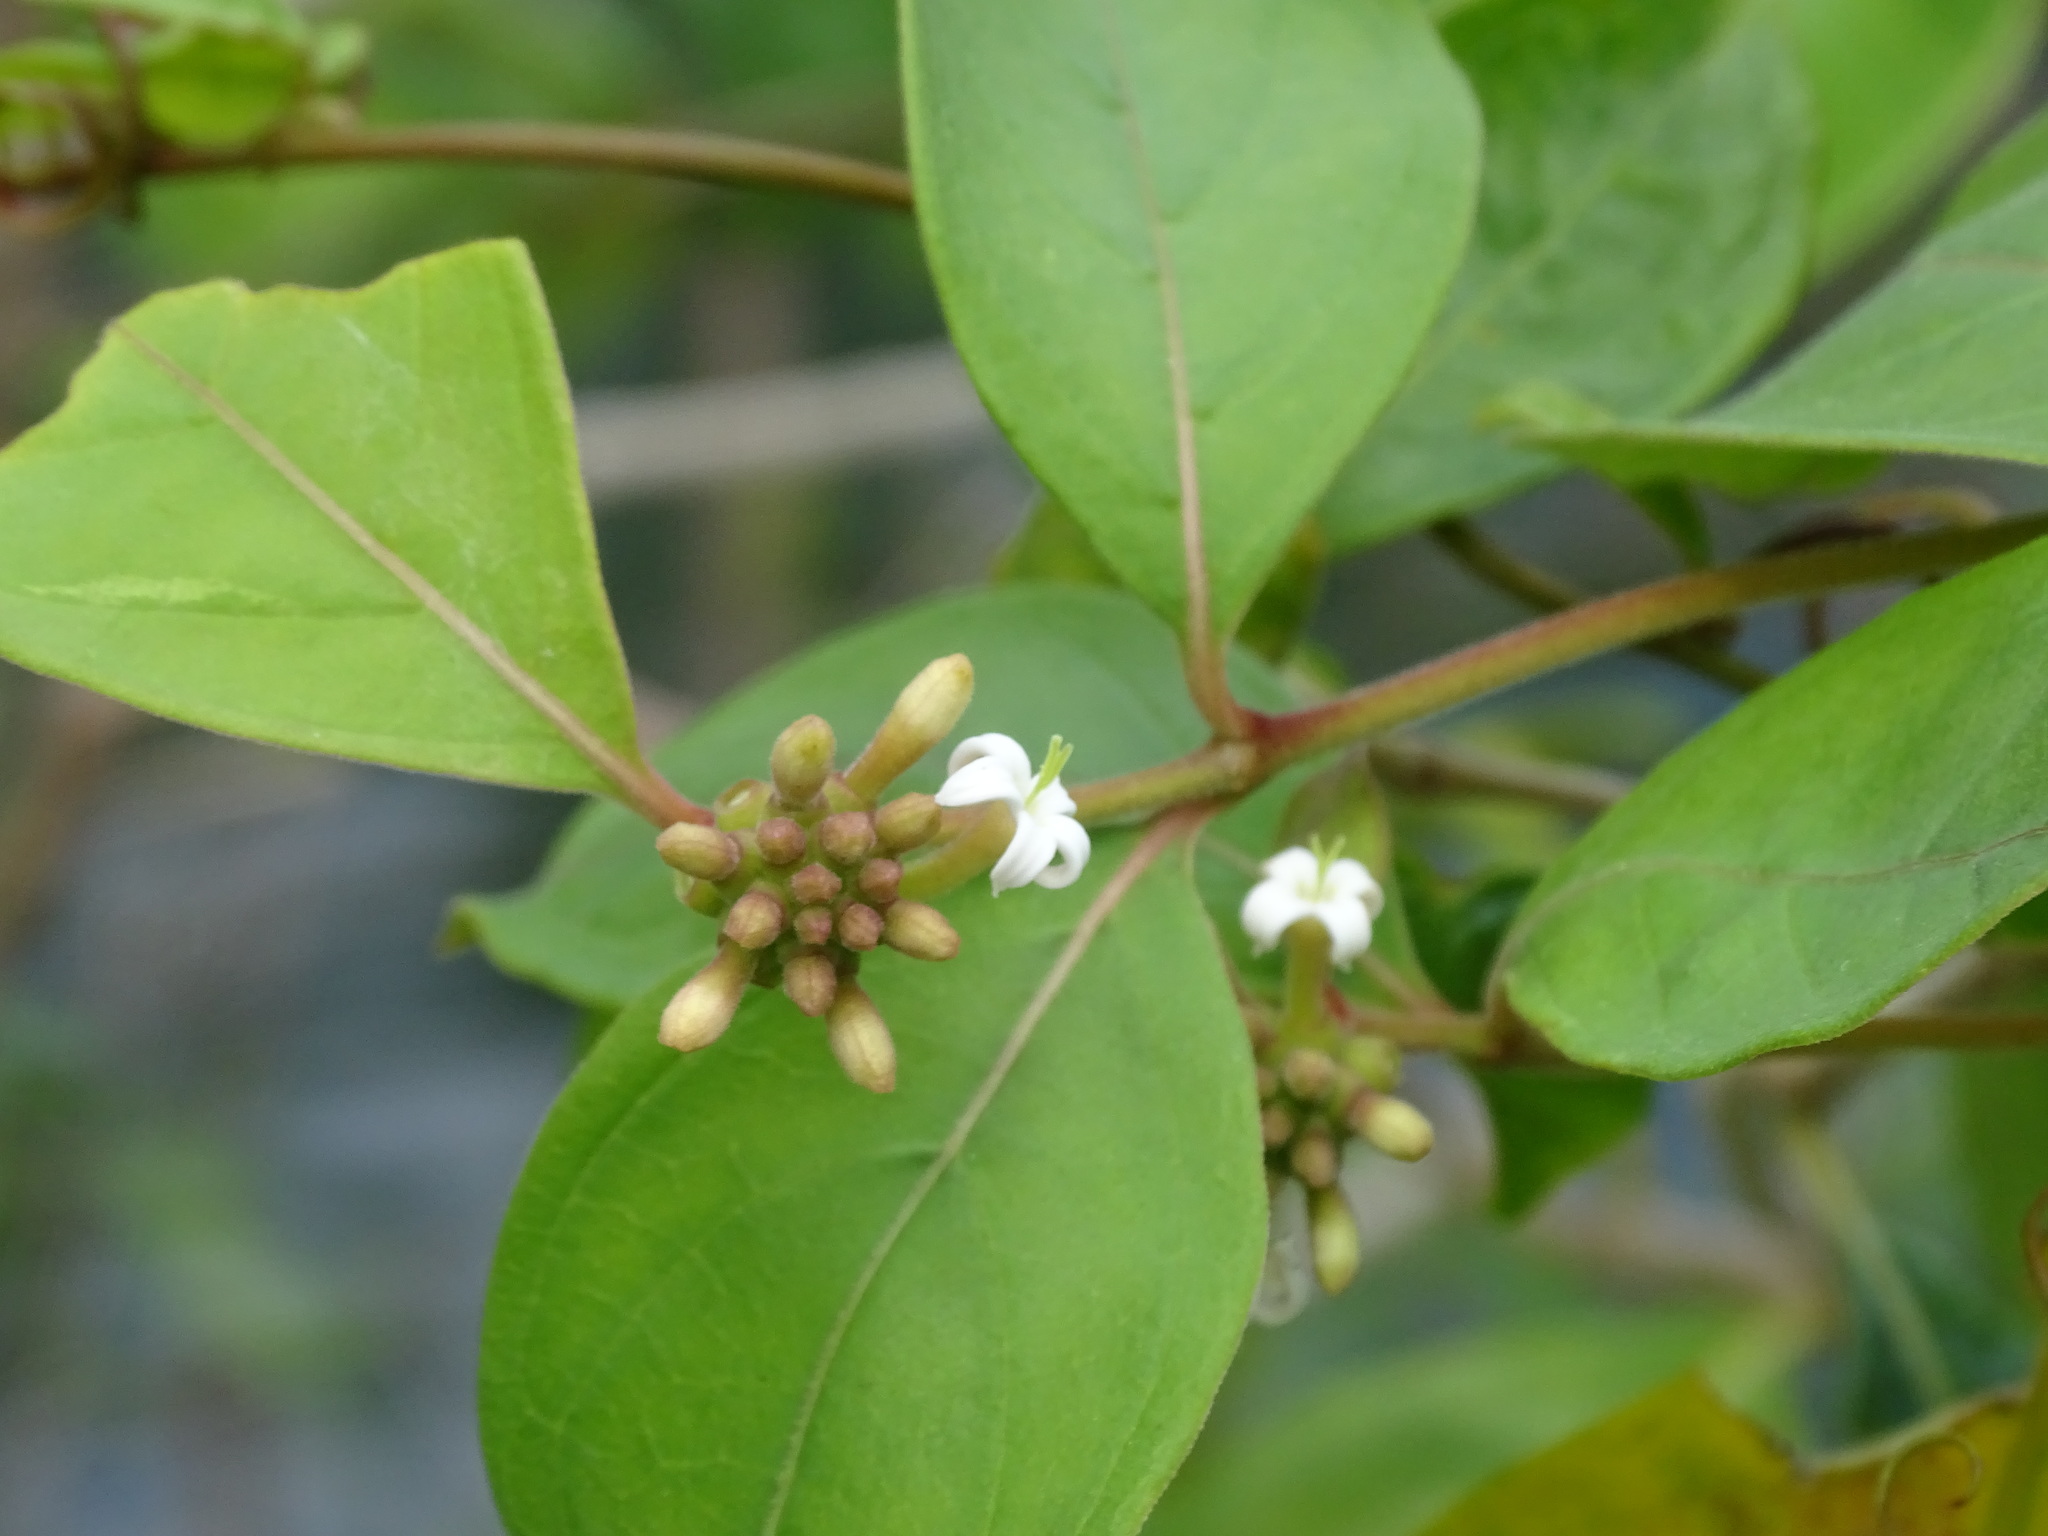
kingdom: Plantae
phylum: Tracheophyta
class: Magnoliopsida
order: Gentianales
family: Rubiaceae
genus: Morinda
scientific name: Morinda royoc
